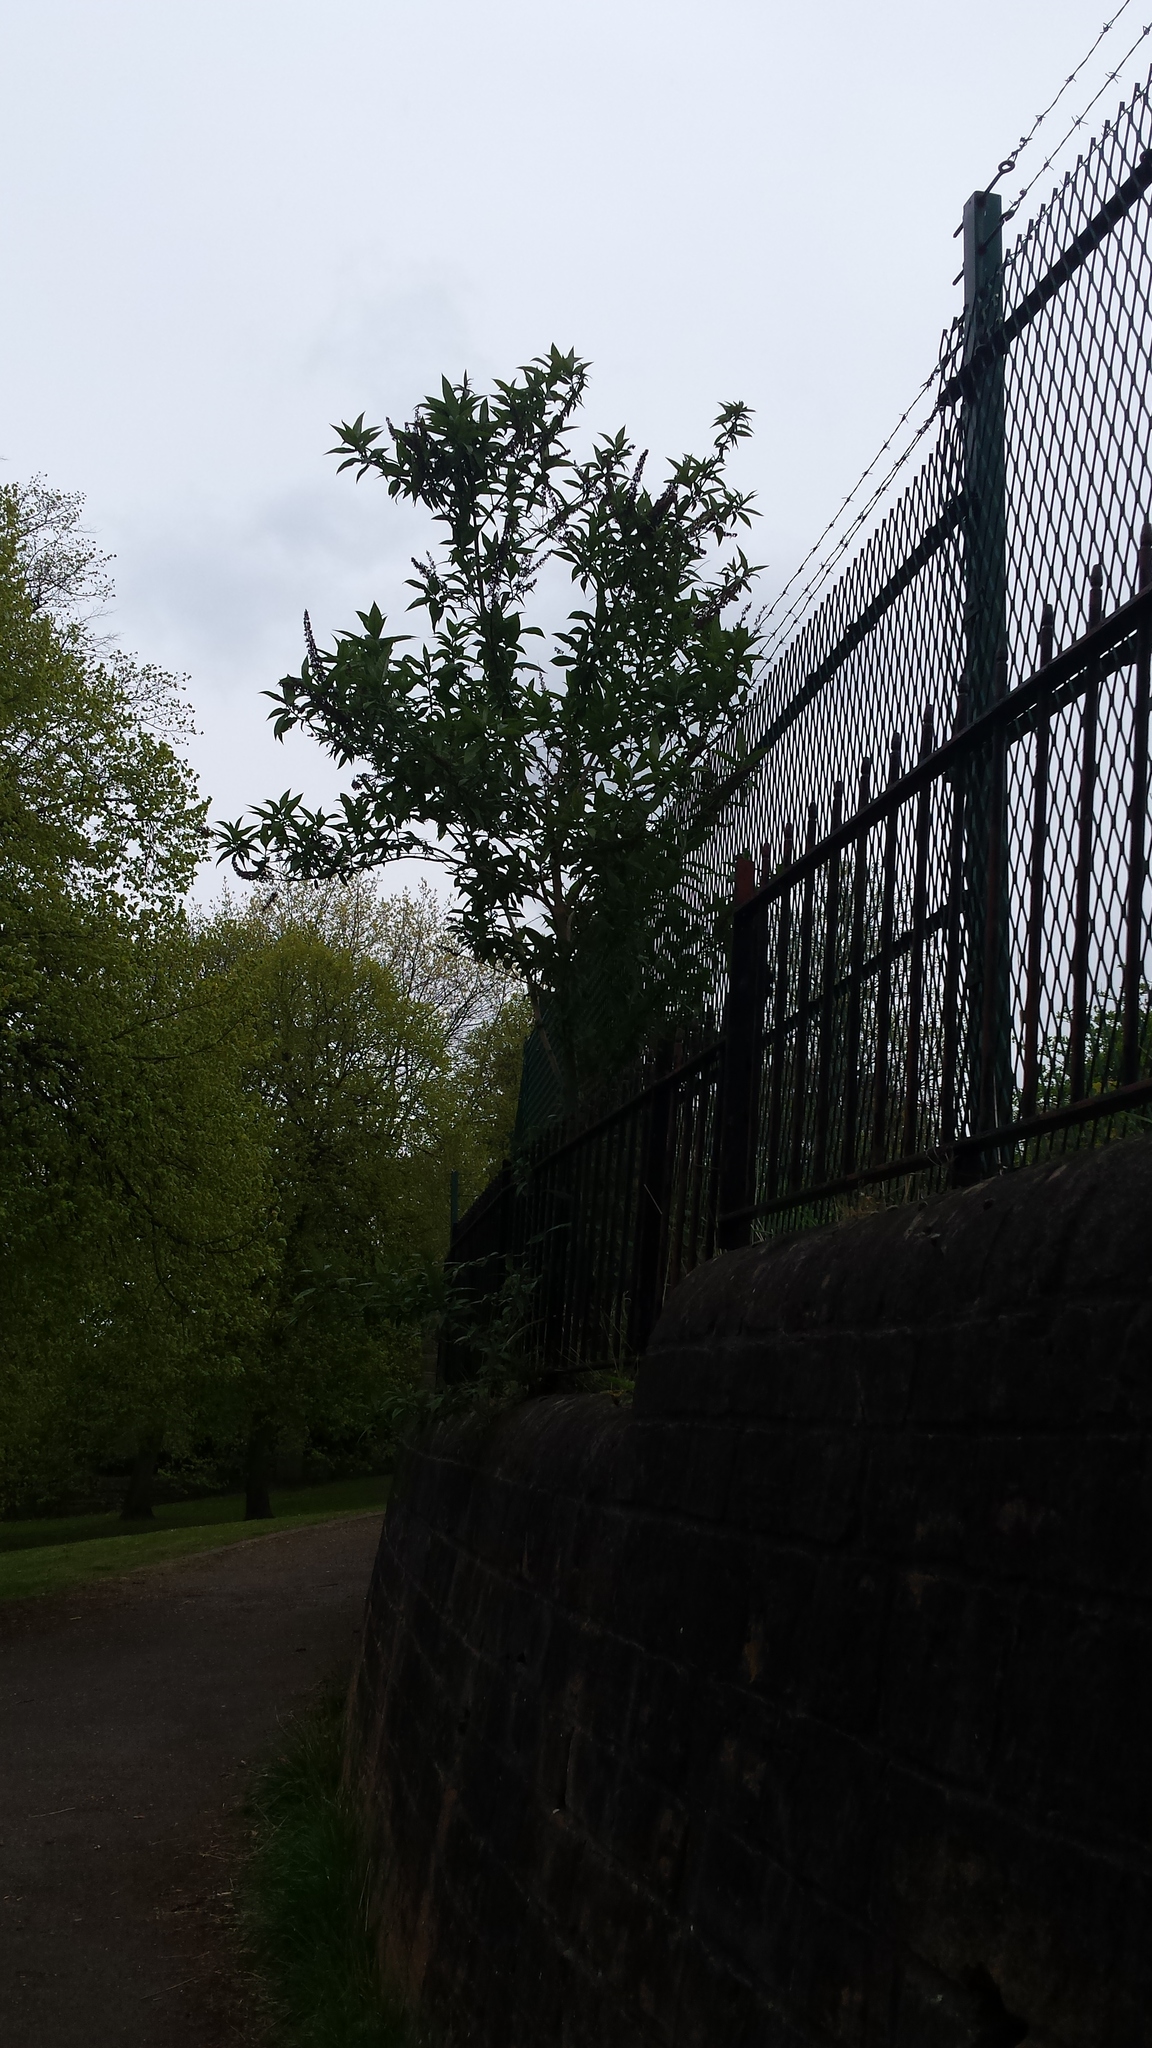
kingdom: Plantae
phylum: Tracheophyta
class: Magnoliopsida
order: Lamiales
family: Scrophulariaceae
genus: Buddleja
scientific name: Buddleja davidii
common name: Butterfly-bush
